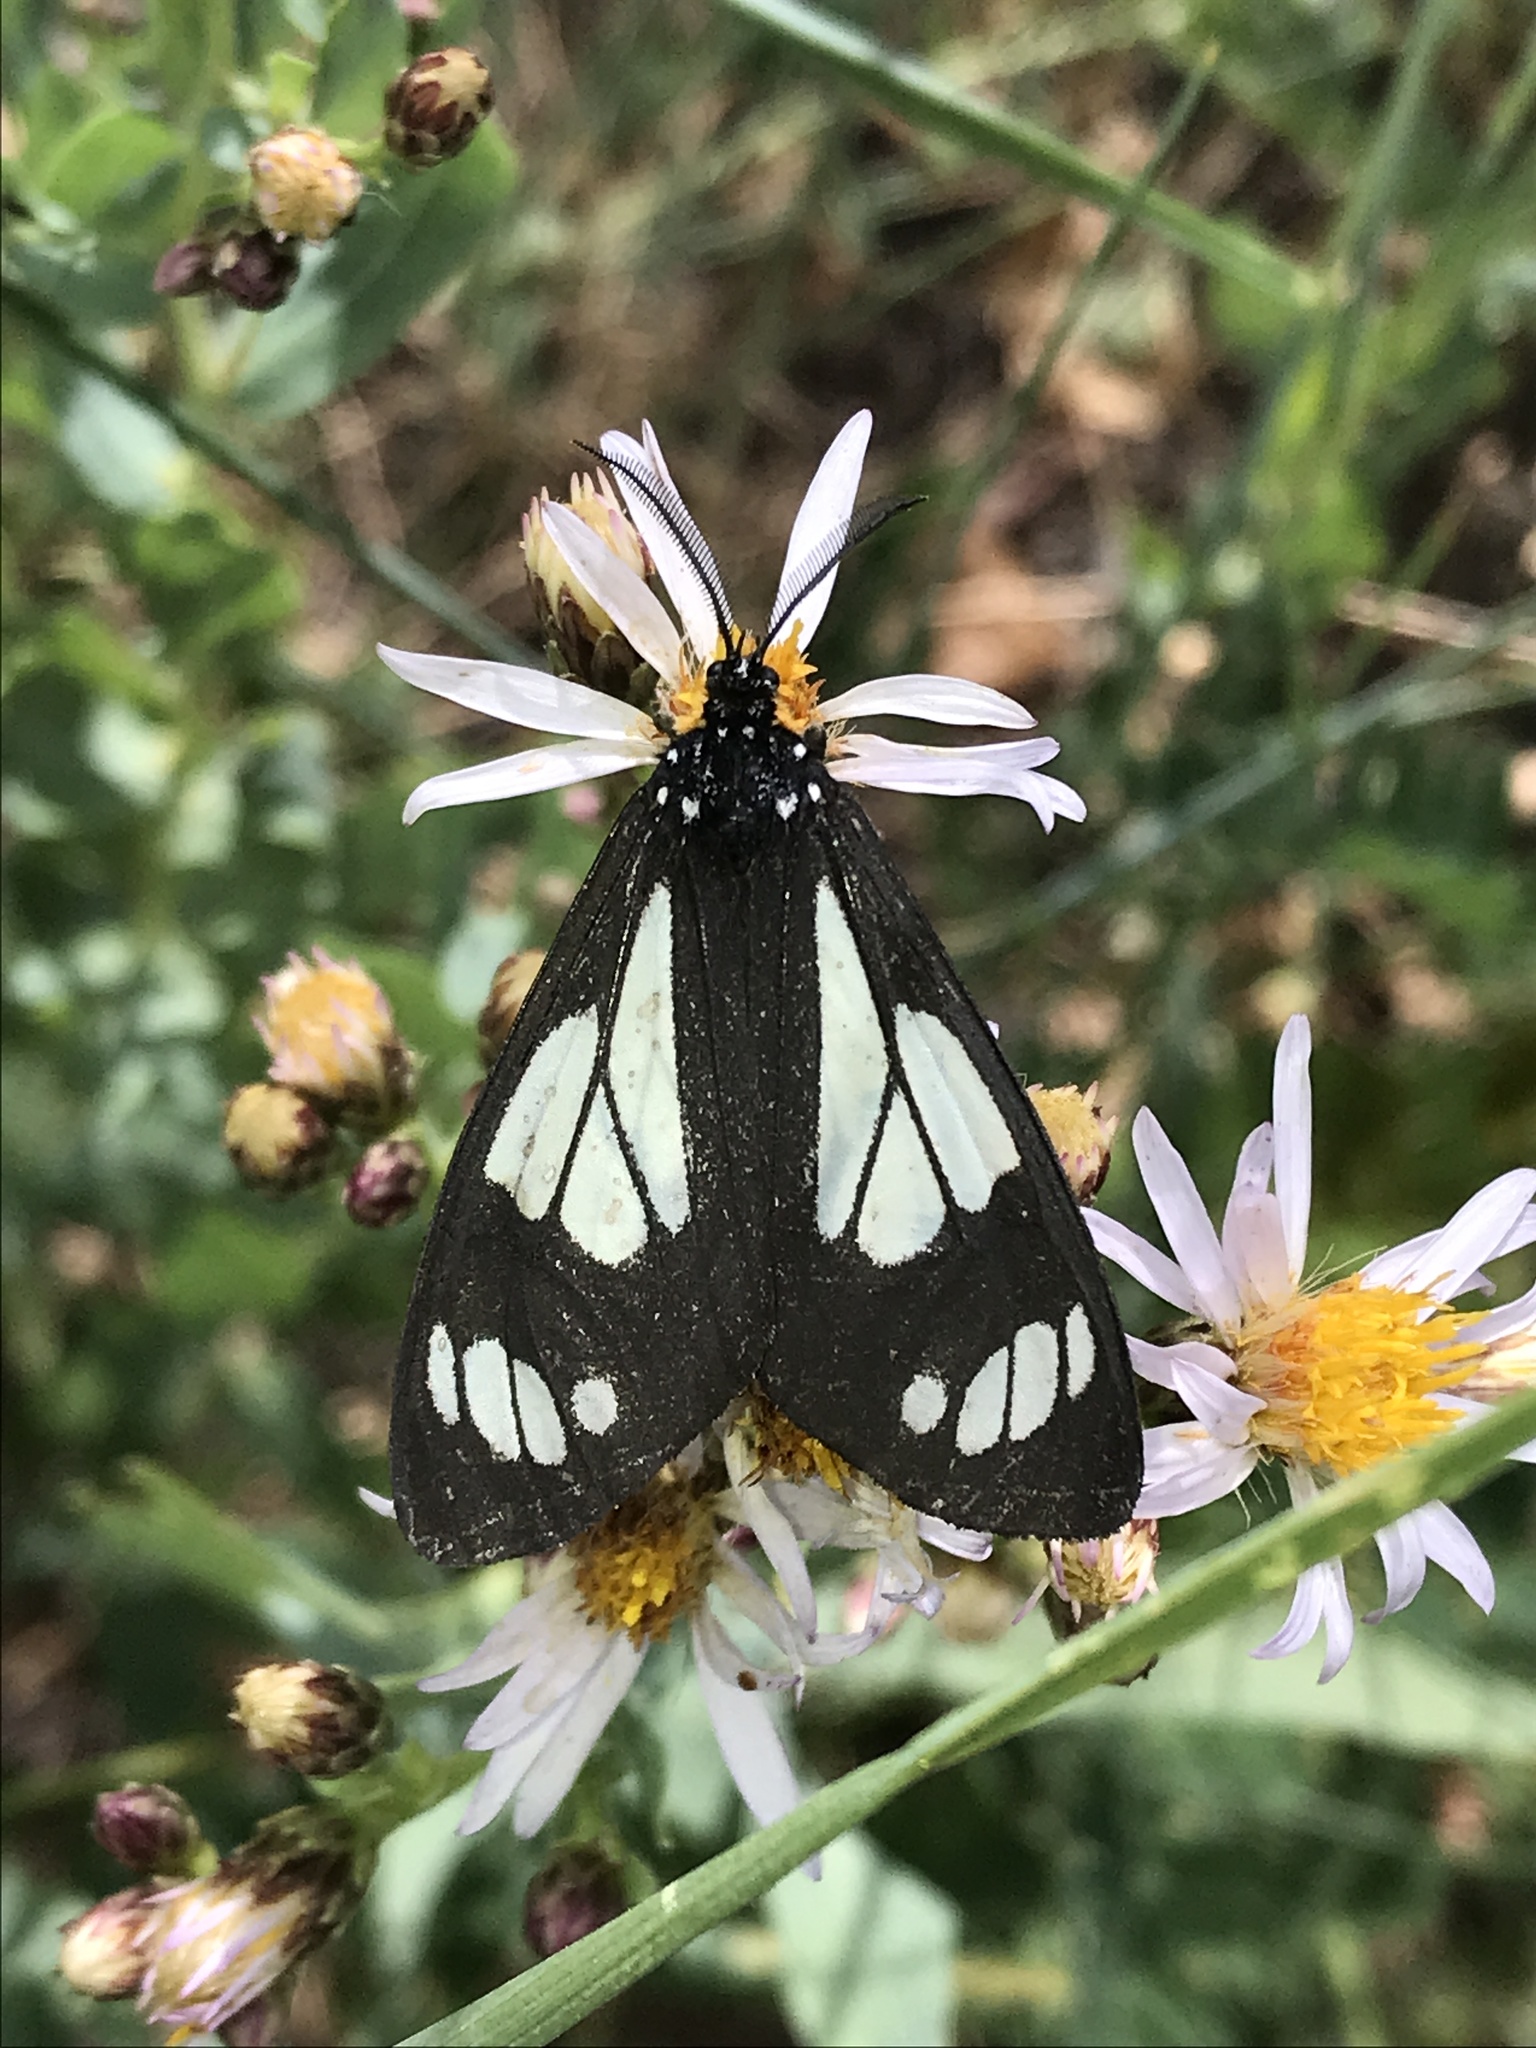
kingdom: Animalia
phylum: Arthropoda
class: Insecta
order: Lepidoptera
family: Erebidae
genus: Gnophaela
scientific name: Gnophaela vermiculata
